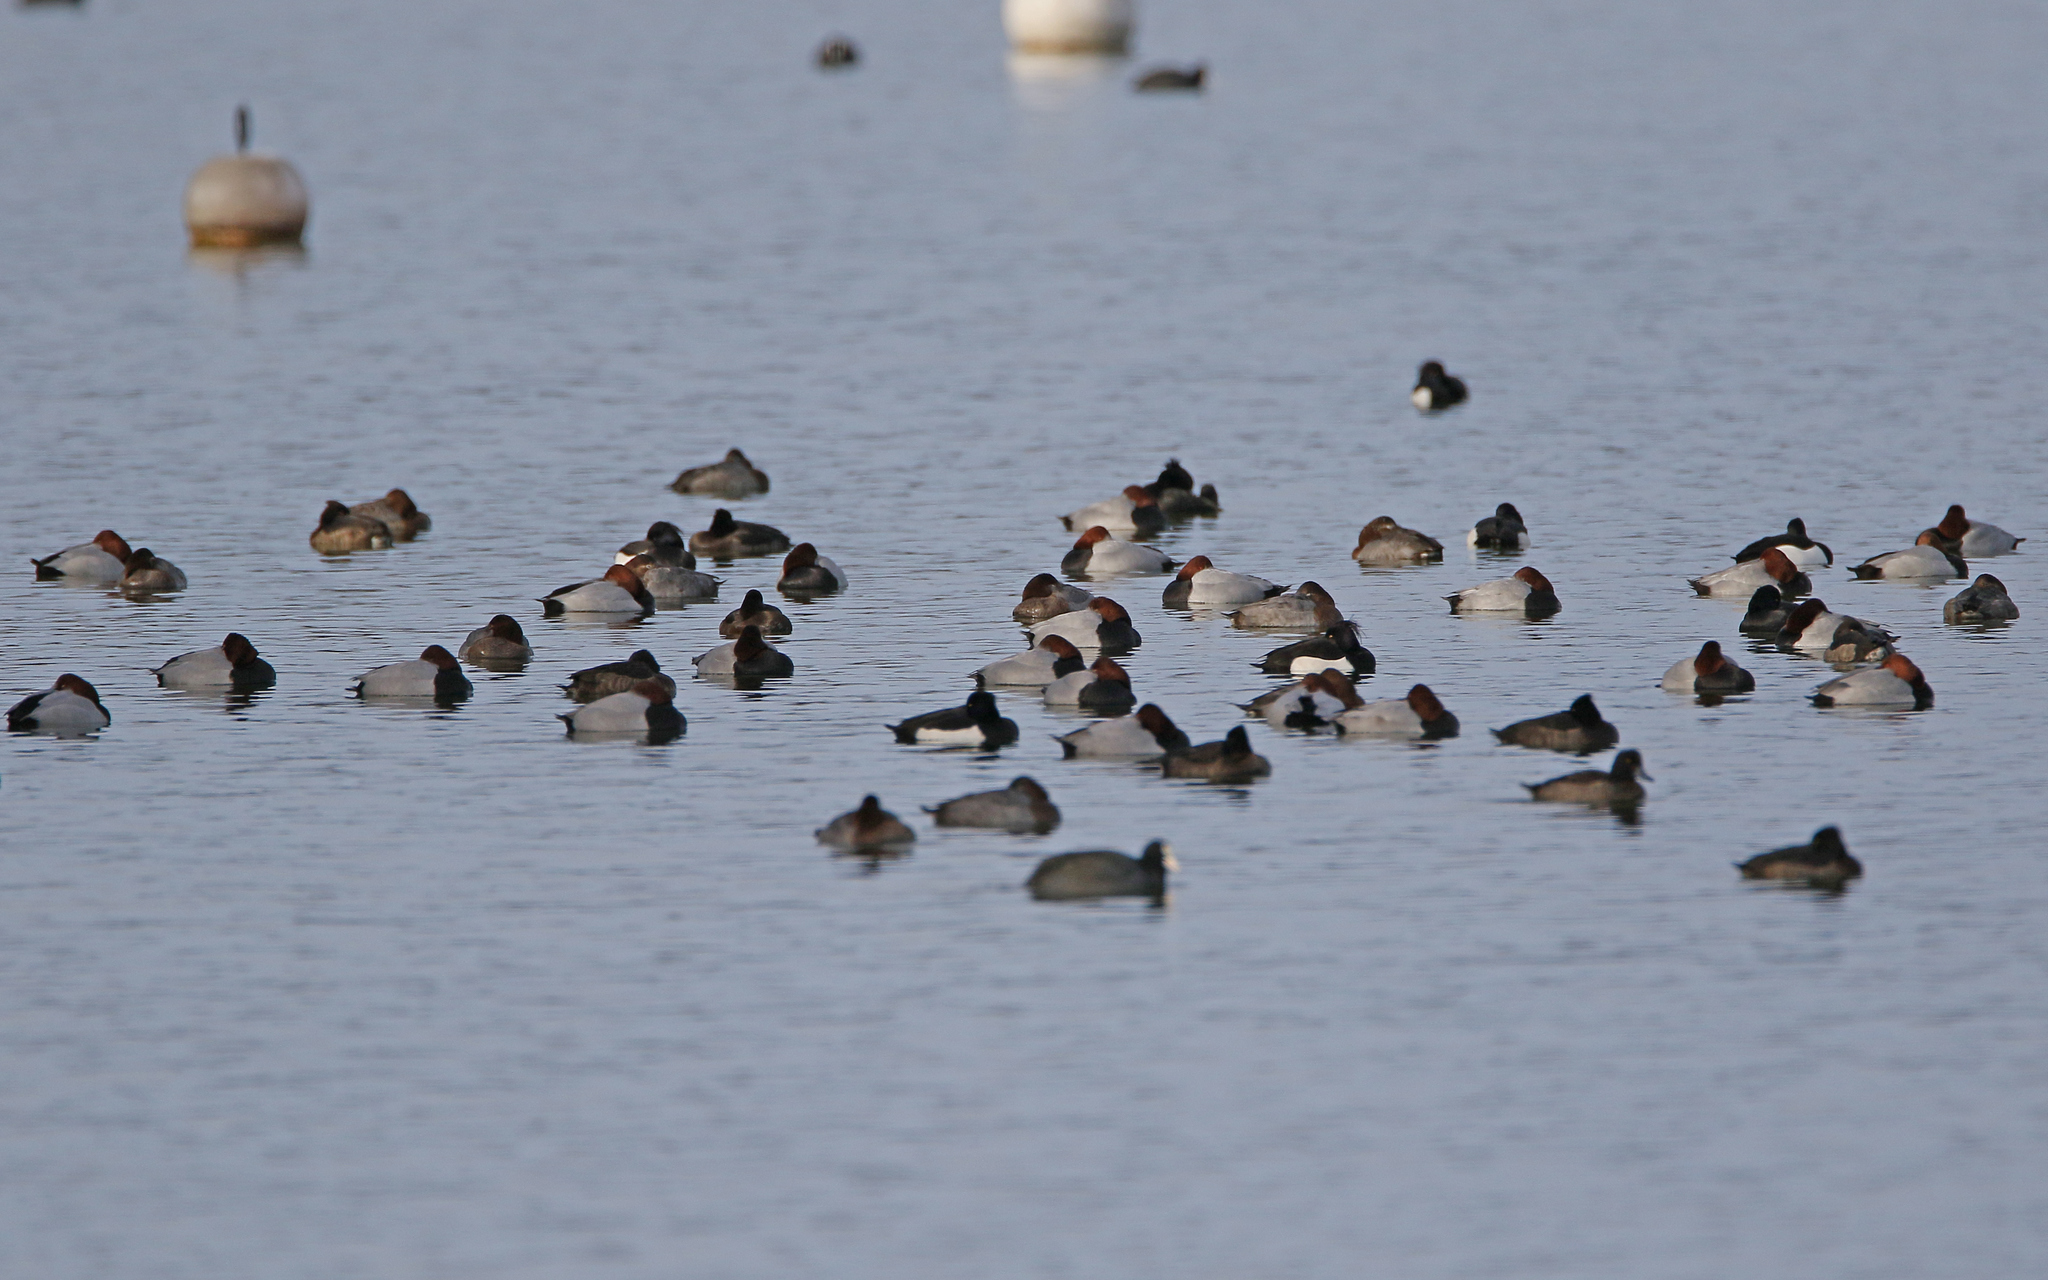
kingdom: Animalia
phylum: Chordata
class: Aves
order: Anseriformes
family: Anatidae
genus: Aythya
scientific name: Aythya ferina
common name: Common pochard
